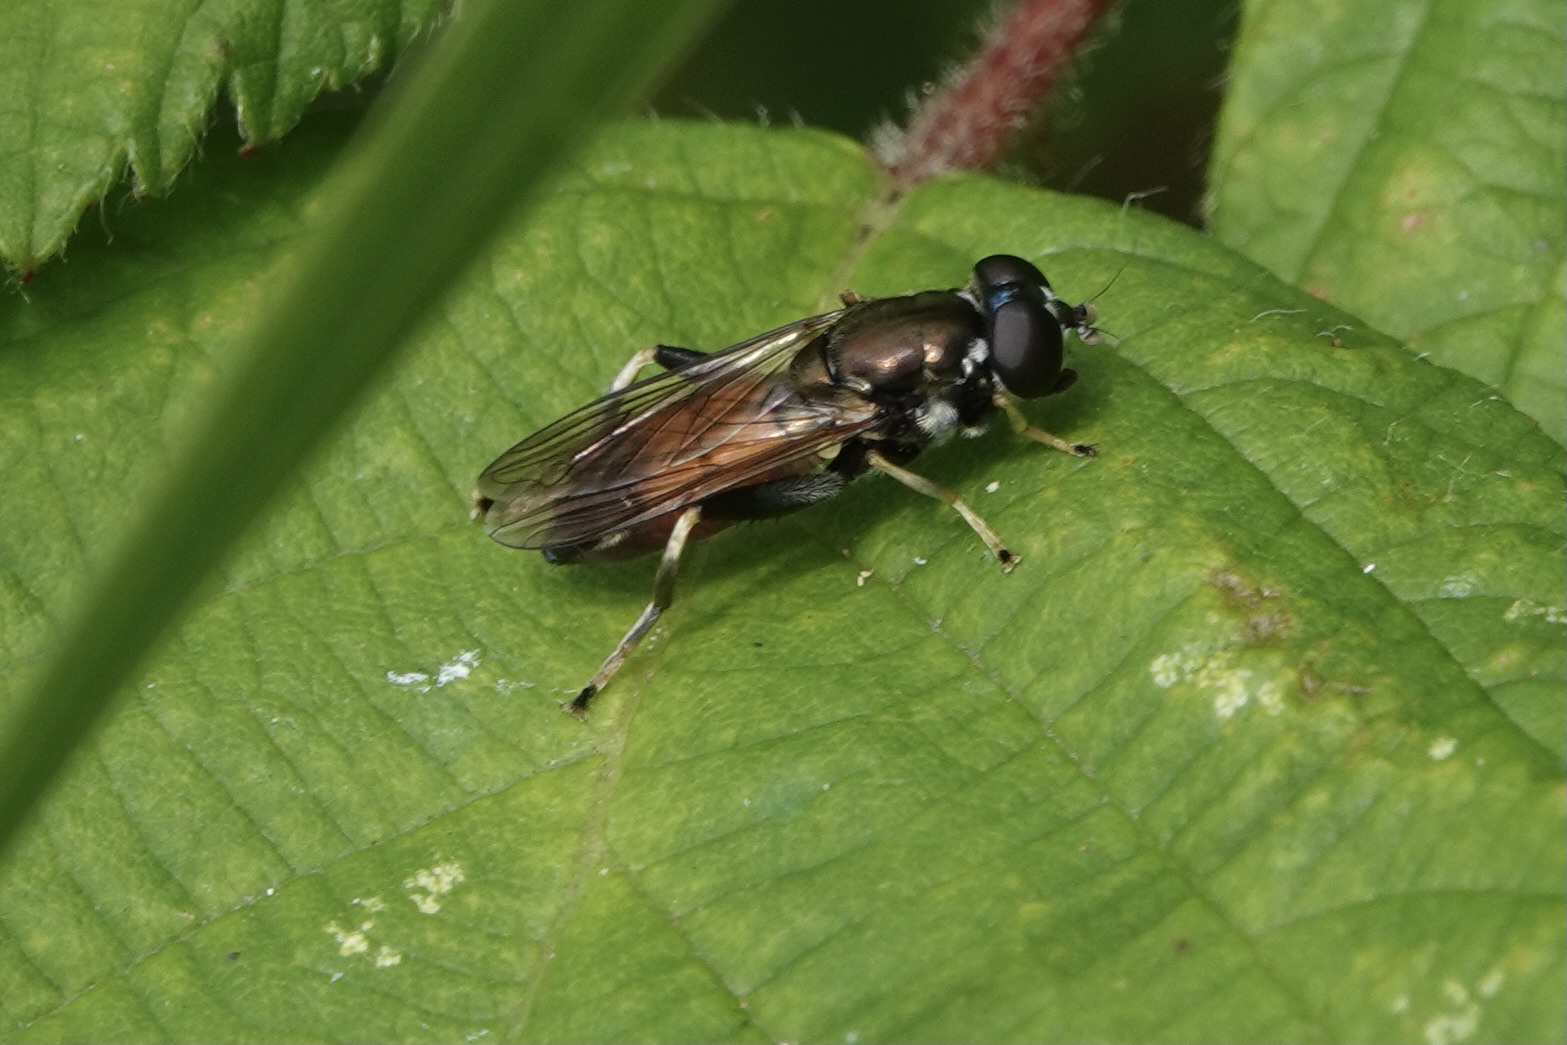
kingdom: Animalia
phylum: Arthropoda
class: Insecta
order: Diptera
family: Syrphidae
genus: Xylota
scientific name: Xylota segnis
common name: Brown-toed forest fly
